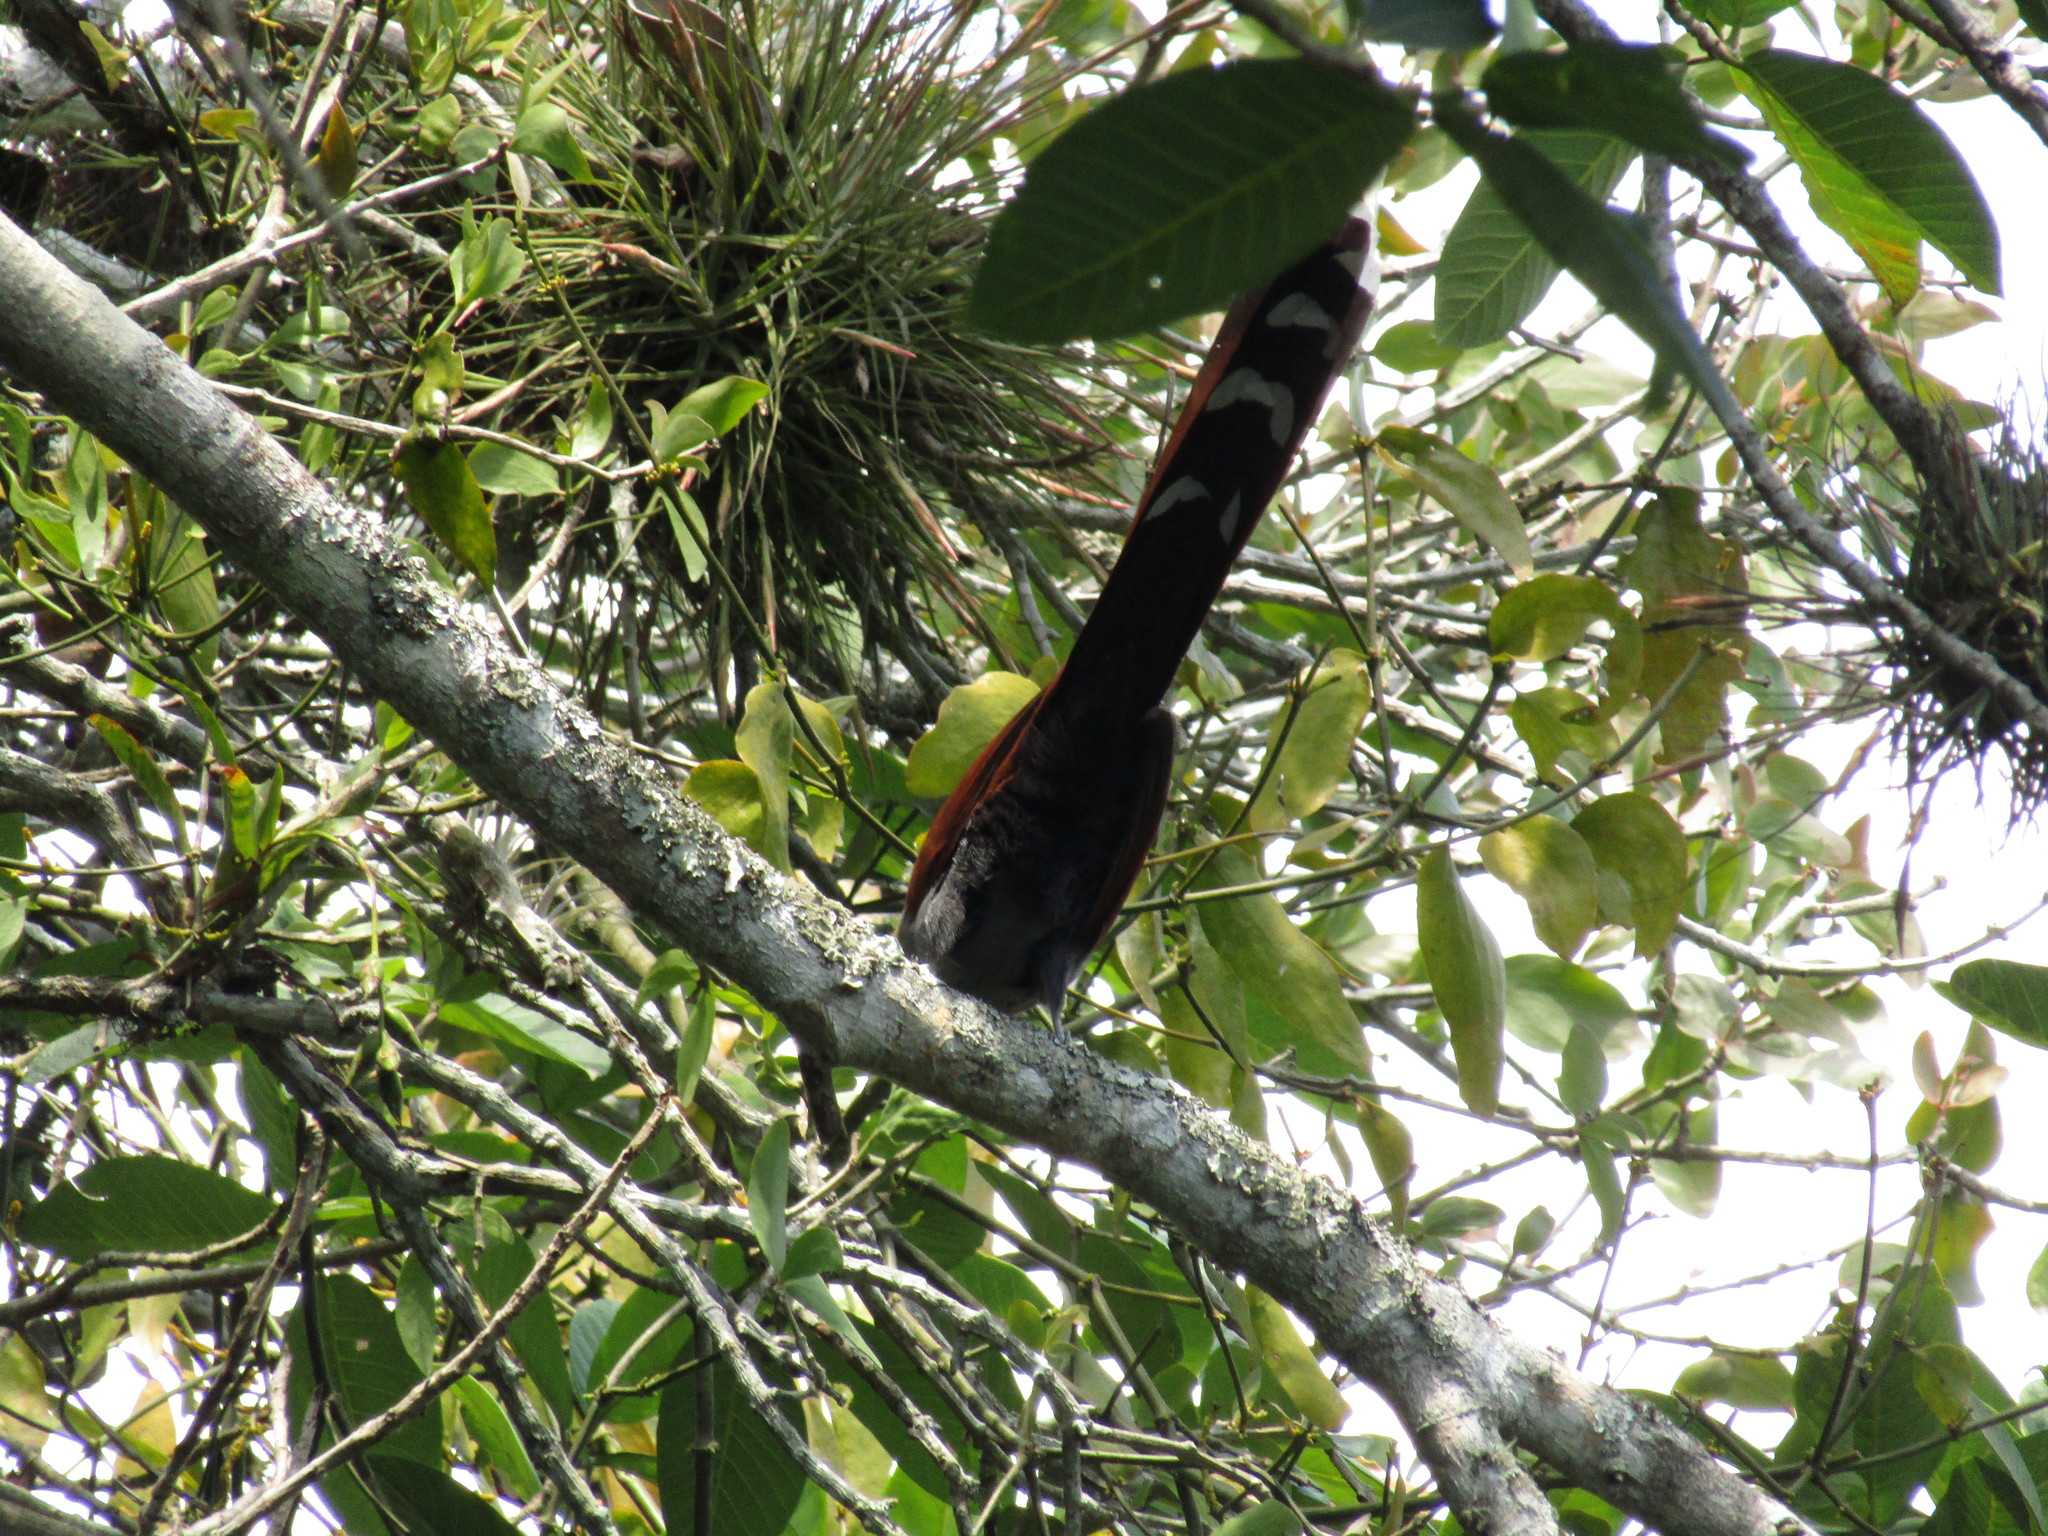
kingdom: Animalia
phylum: Chordata
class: Aves
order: Cuculiformes
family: Cuculidae
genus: Piaya
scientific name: Piaya cayana
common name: Squirrel cuckoo
